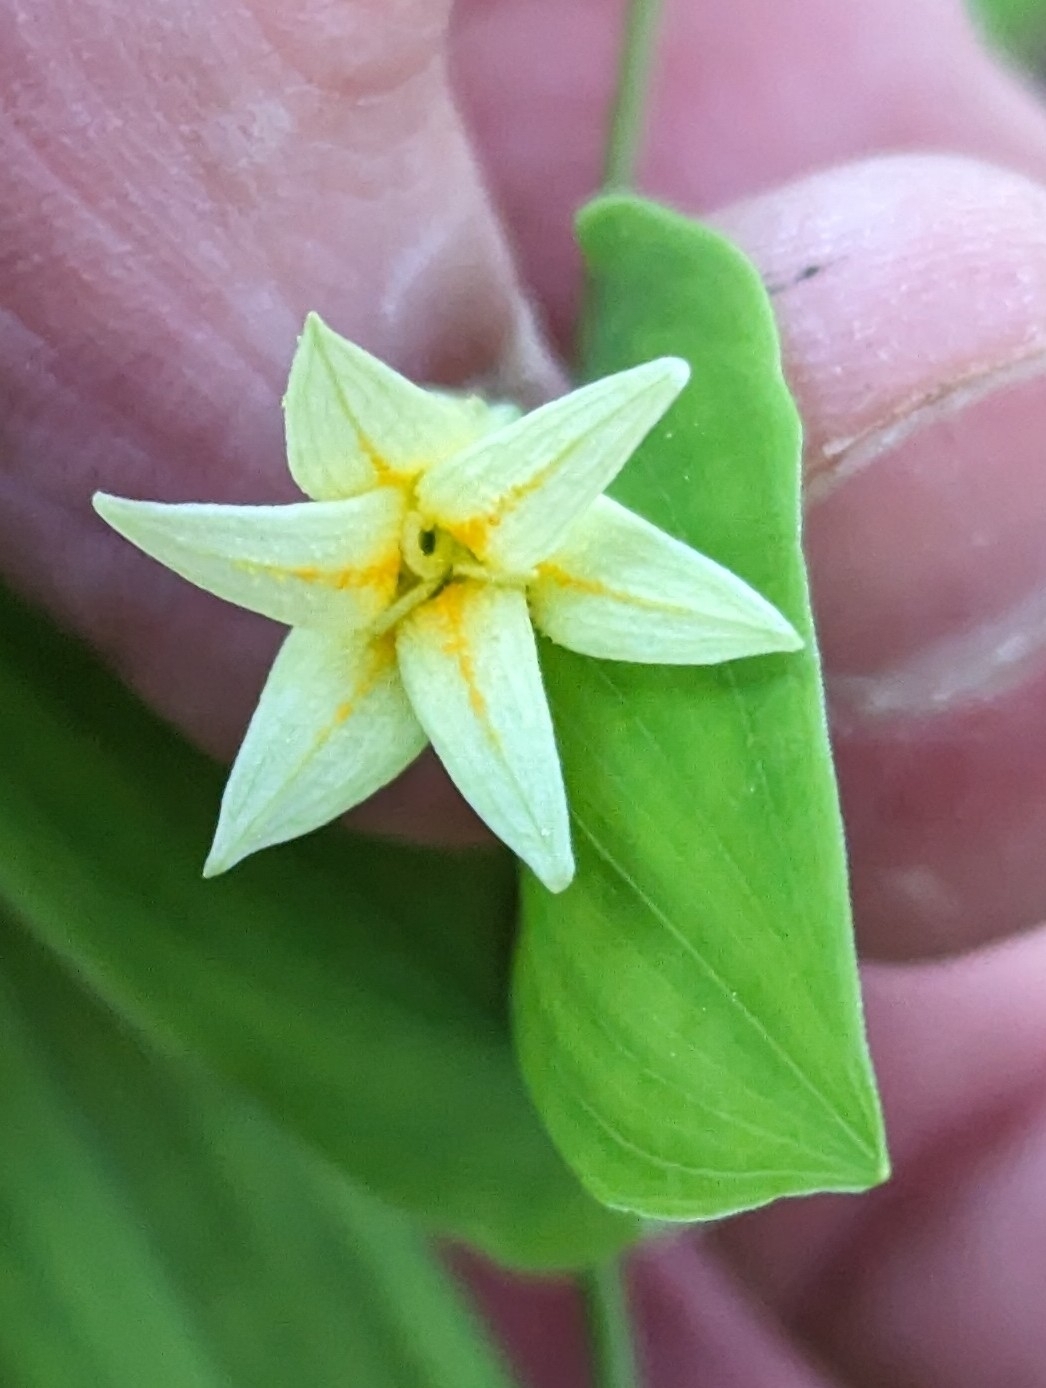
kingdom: Plantae
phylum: Tracheophyta
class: Liliopsida
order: Liliales
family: Colchicaceae
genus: Uvularia
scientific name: Uvularia perfoliata
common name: Perfoliate bellwort
